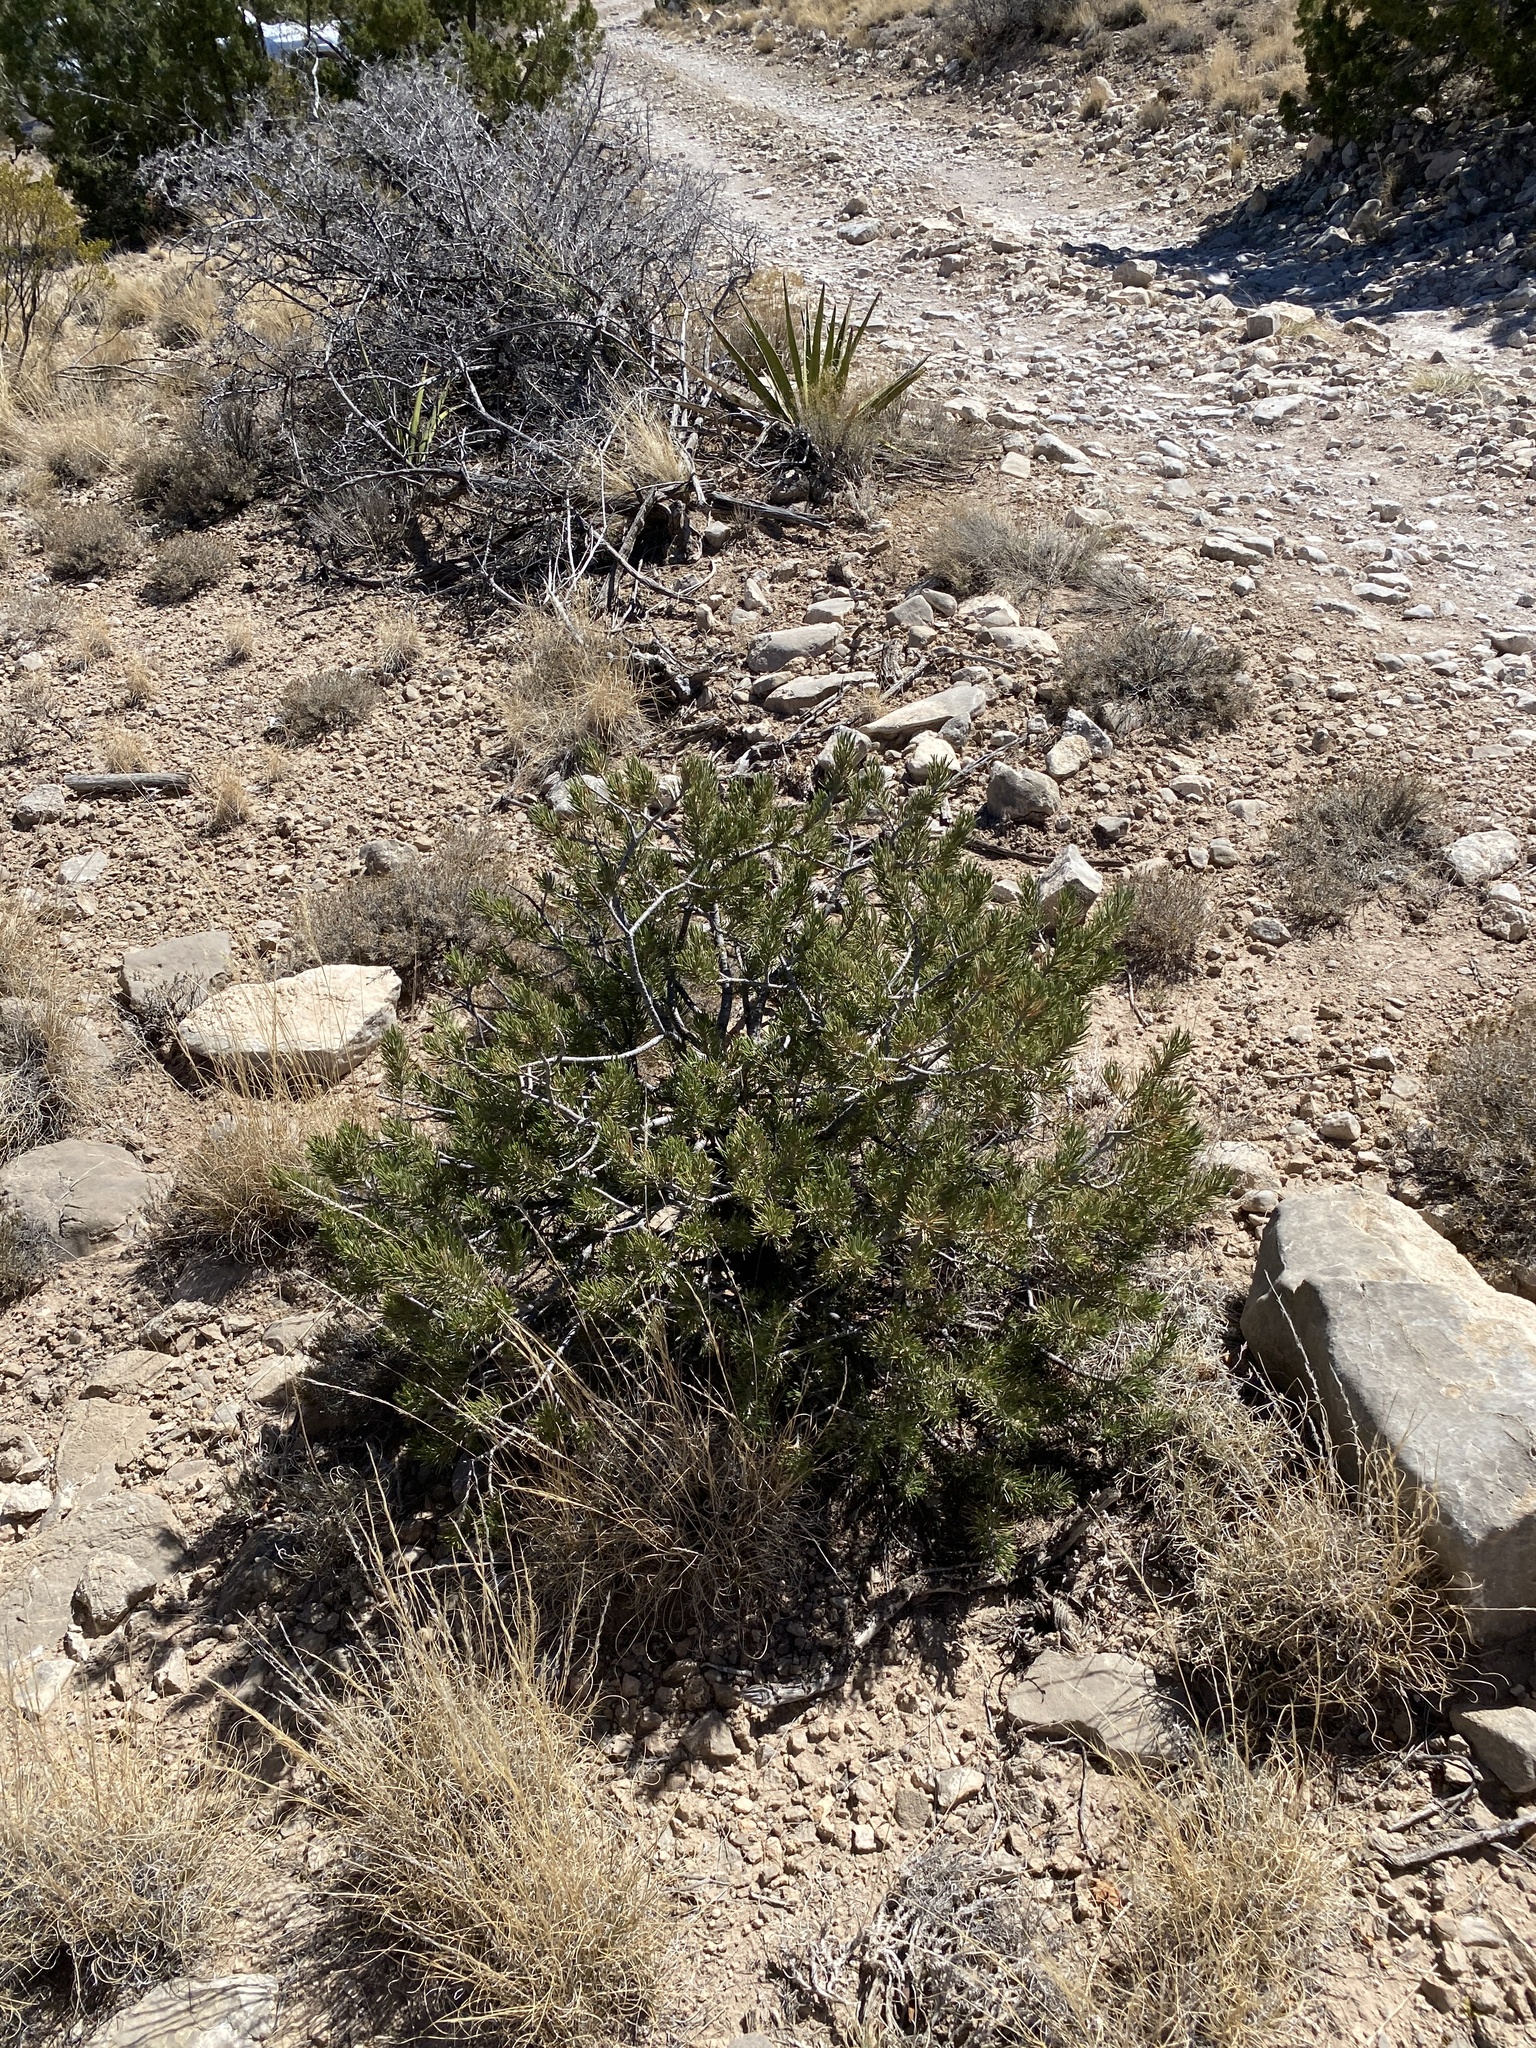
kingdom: Plantae
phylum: Tracheophyta
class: Pinopsida
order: Pinales
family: Pinaceae
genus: Pinus
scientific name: Pinus edulis
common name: Colorado pinyon
